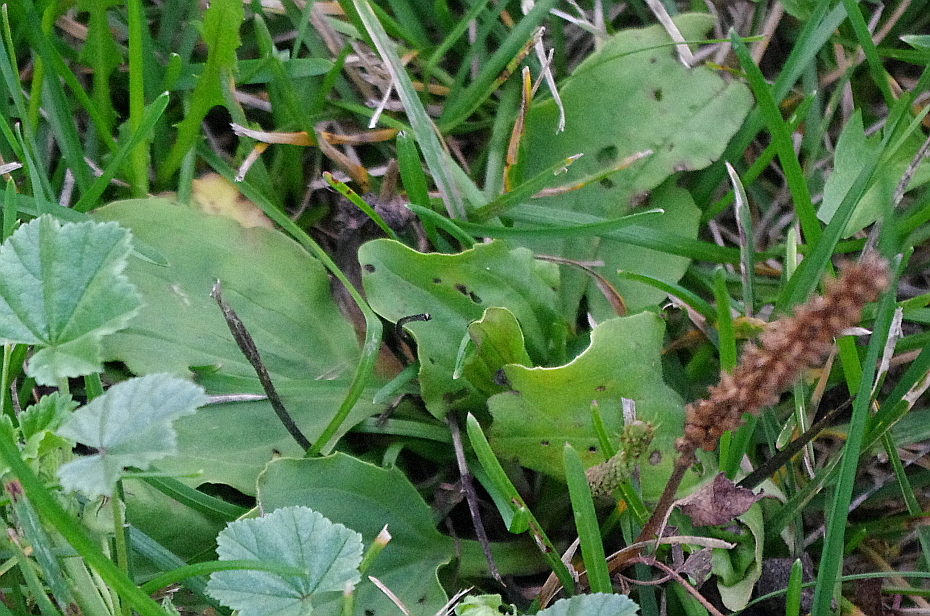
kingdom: Plantae
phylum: Tracheophyta
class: Magnoliopsida
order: Lamiales
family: Plantaginaceae
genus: Plantago
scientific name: Plantago major
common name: Common plantain
